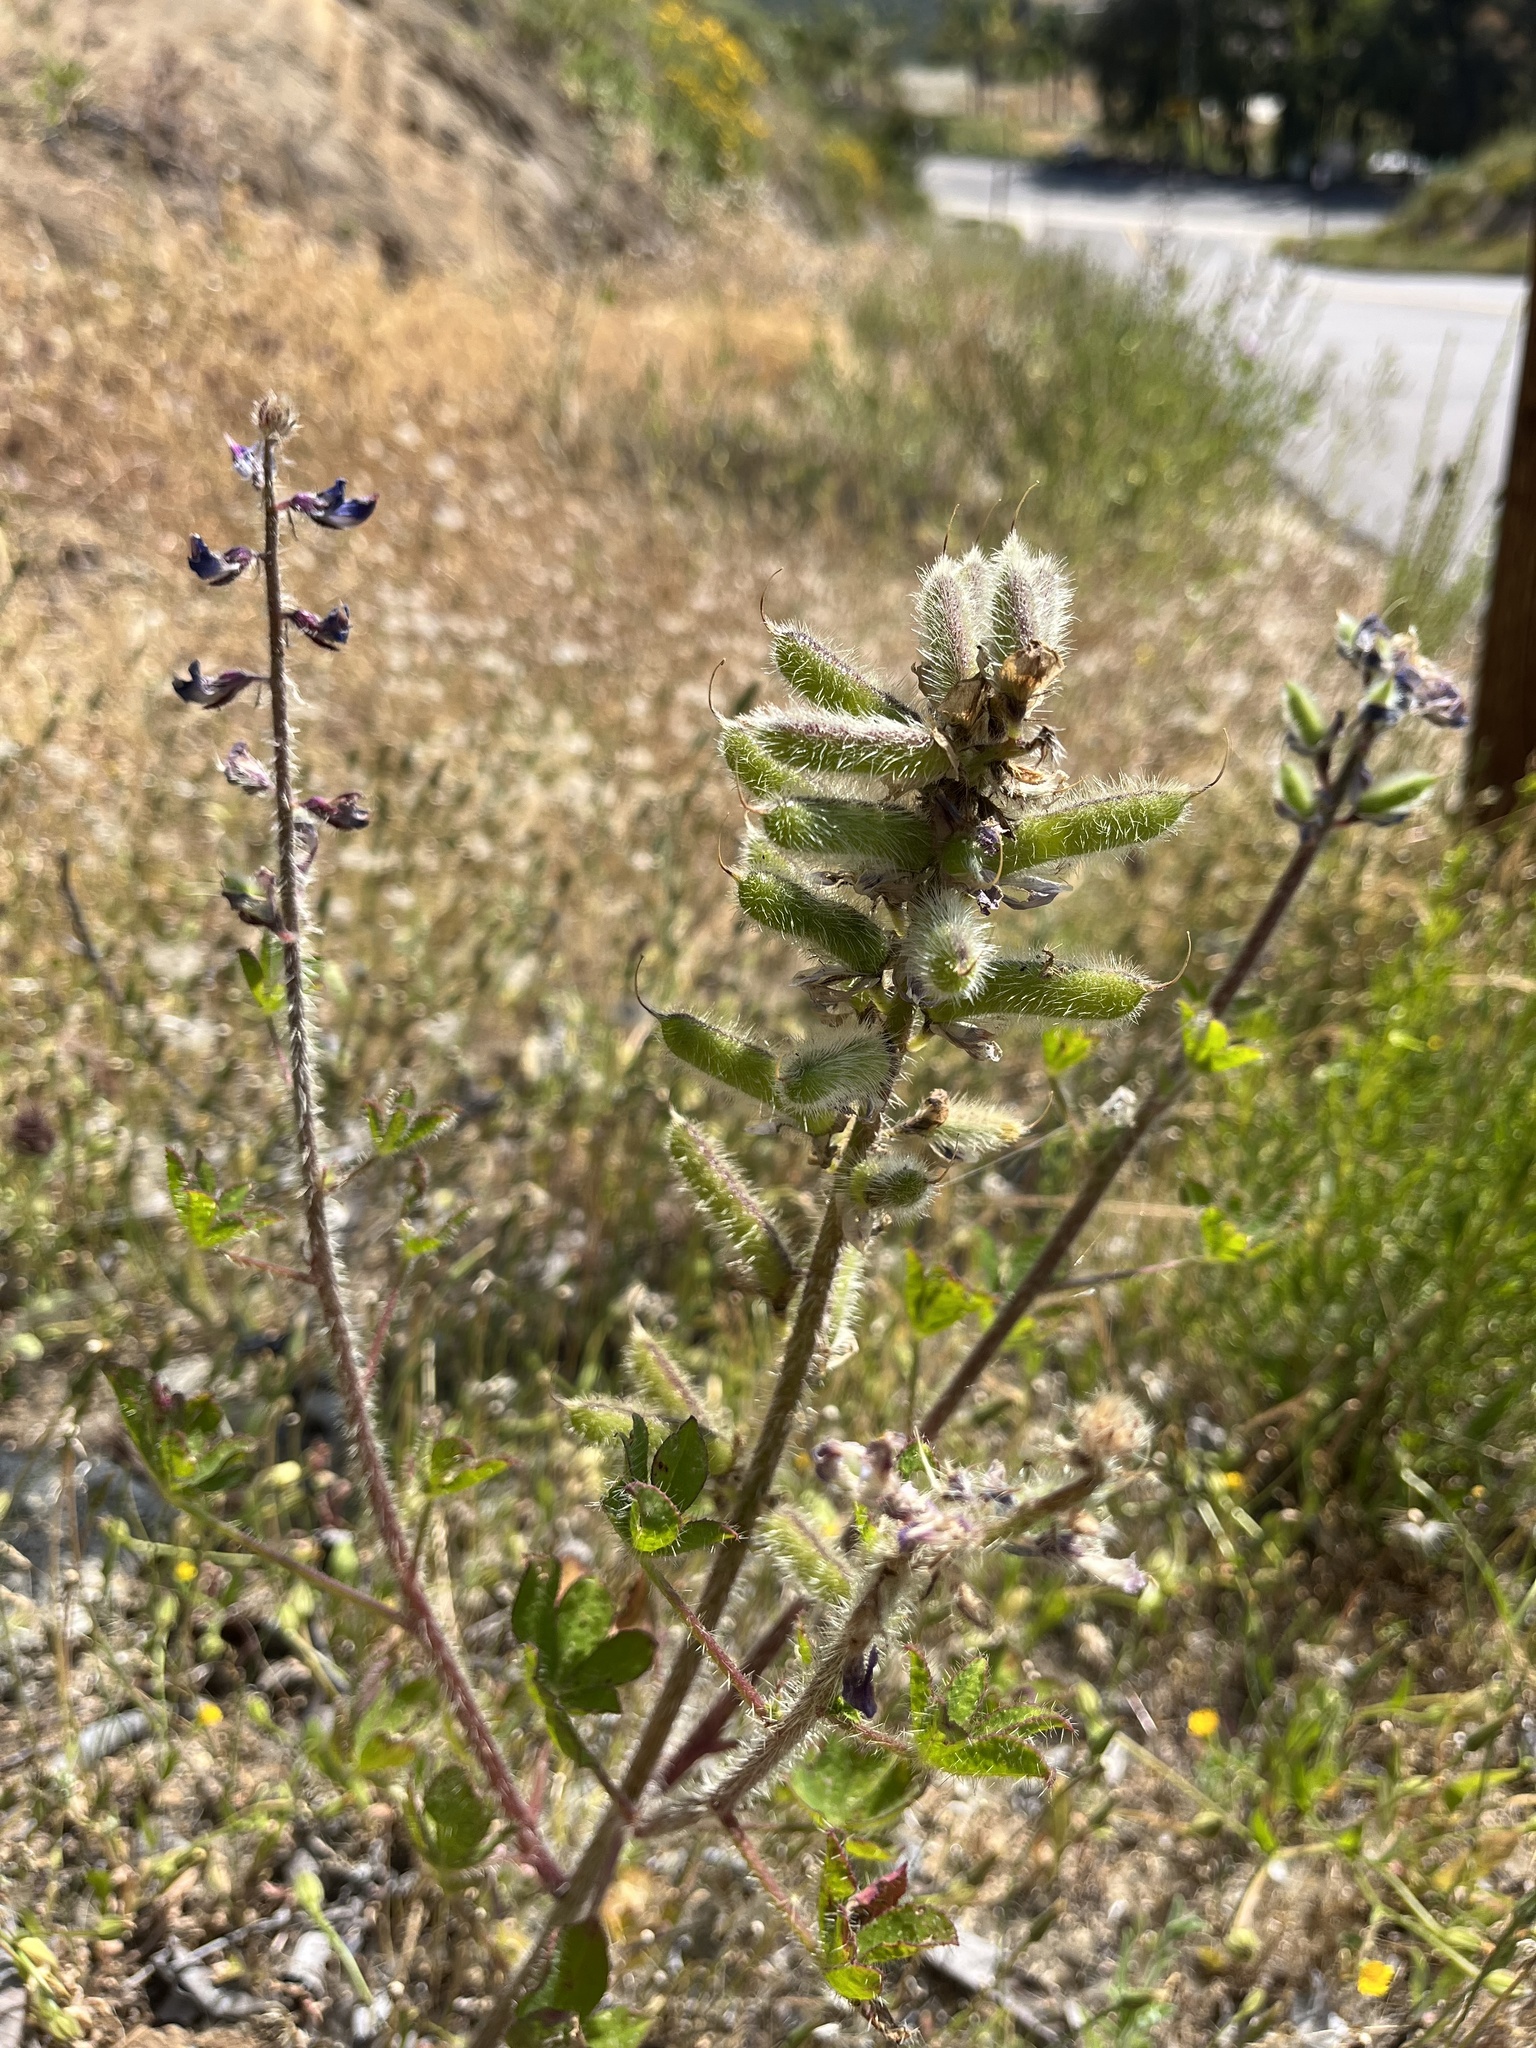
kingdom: Plantae
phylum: Tracheophyta
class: Magnoliopsida
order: Fabales
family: Fabaceae
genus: Lupinus
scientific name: Lupinus hirsutissimus
